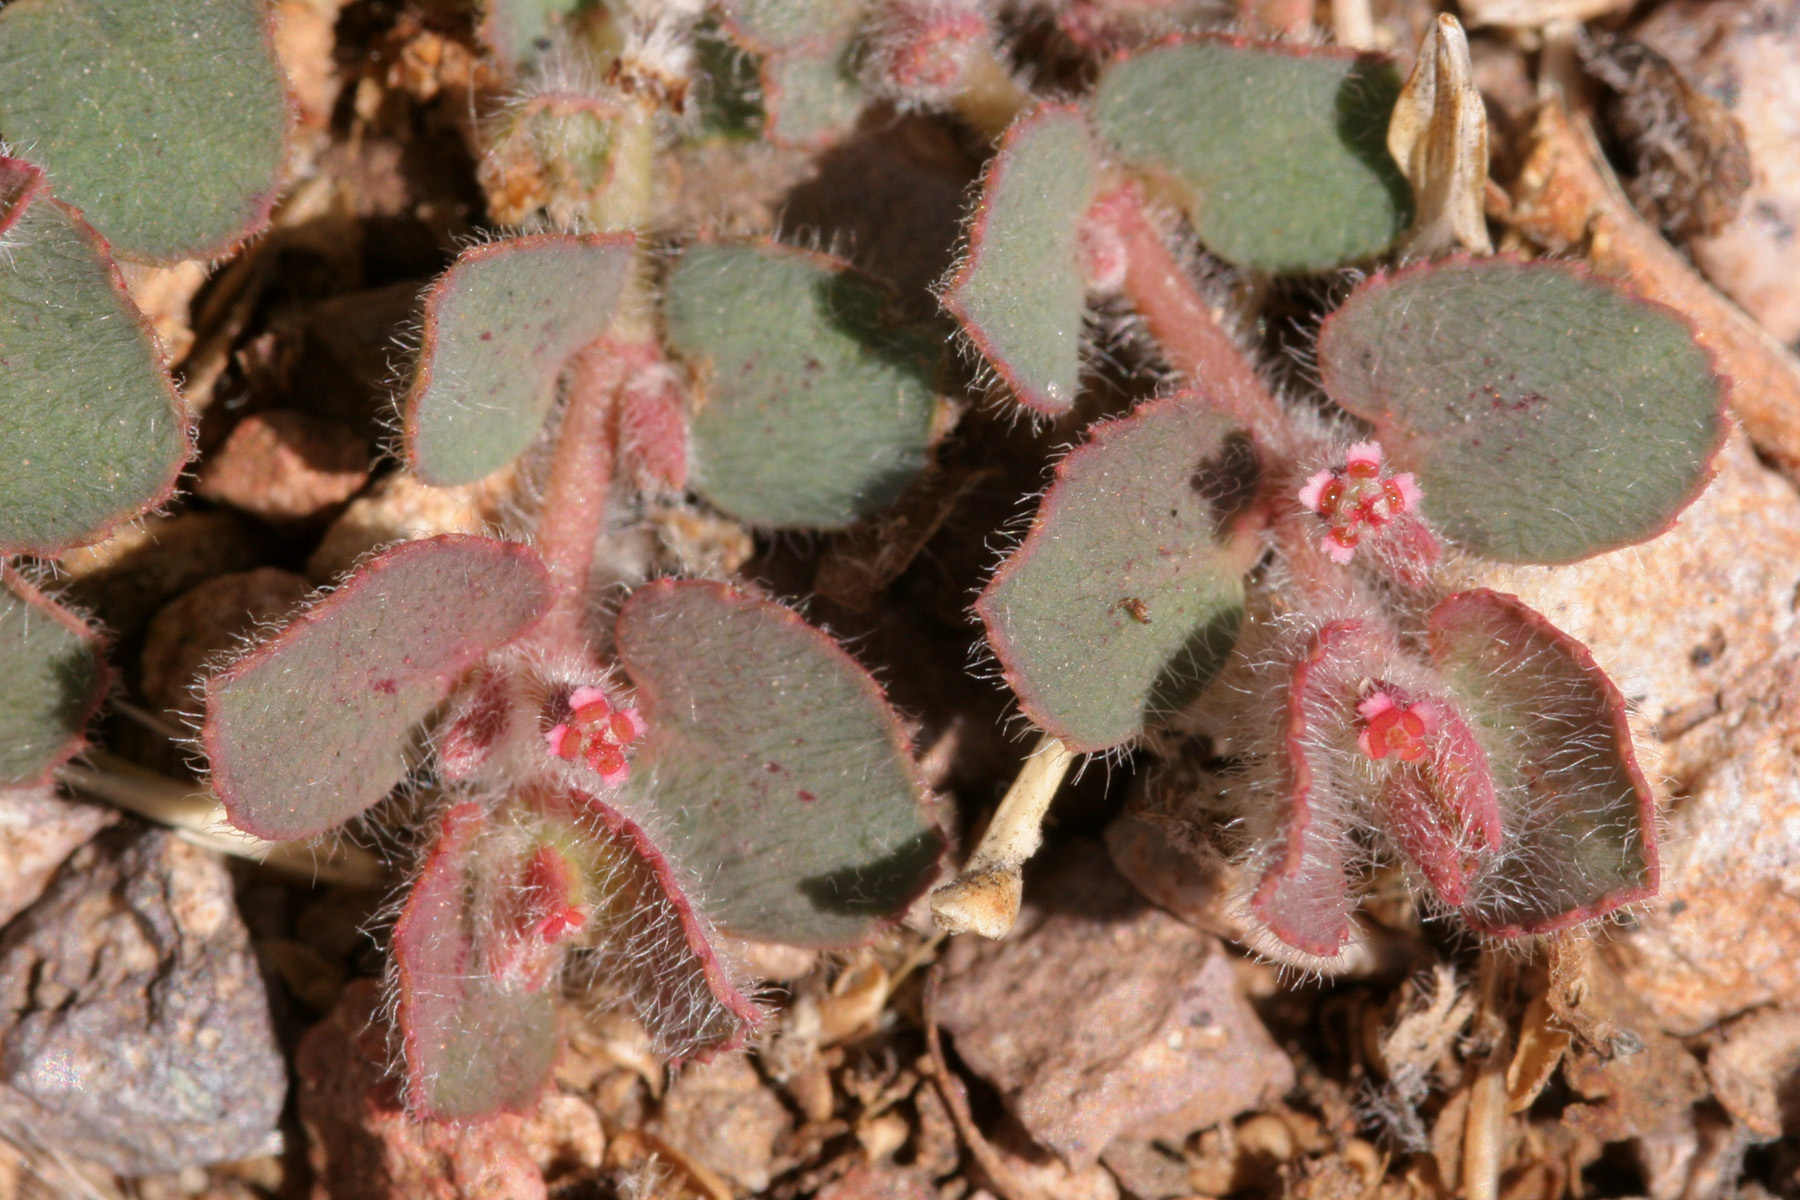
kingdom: Plantae
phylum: Tracheophyta
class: Magnoliopsida
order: Malpighiales
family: Euphorbiaceae
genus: Euphorbia
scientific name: Euphorbia velleriflora
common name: Caliche sandmat
